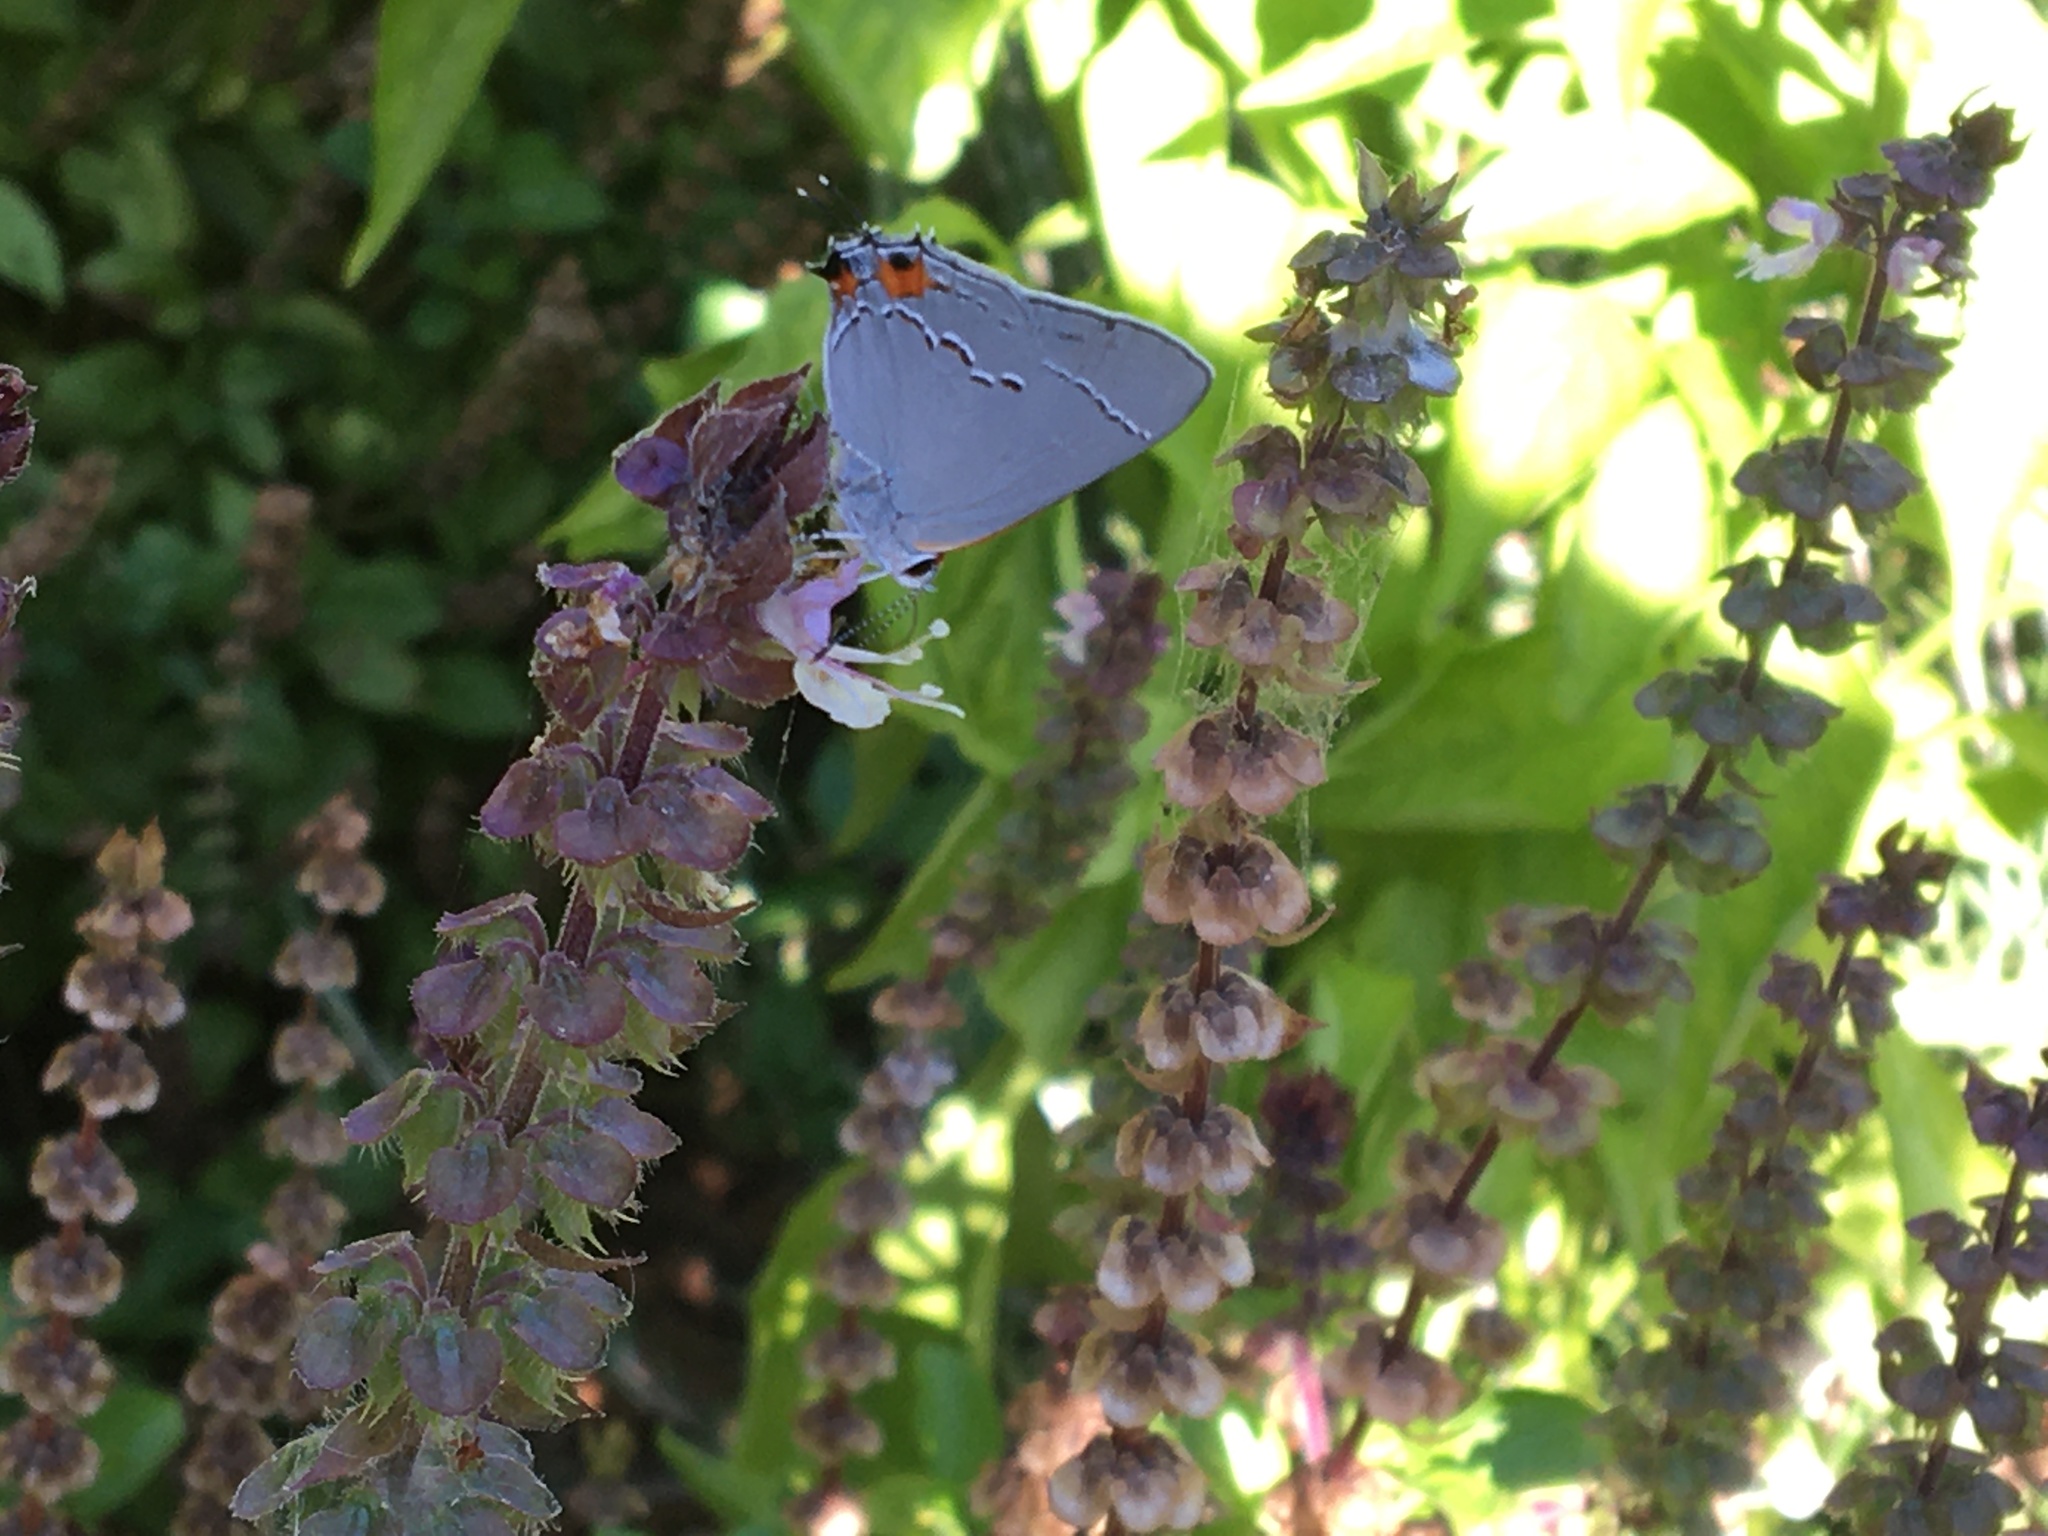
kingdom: Animalia
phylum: Arthropoda
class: Insecta
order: Lepidoptera
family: Lycaenidae
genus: Strymon
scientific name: Strymon melinus
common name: Gray hairstreak
